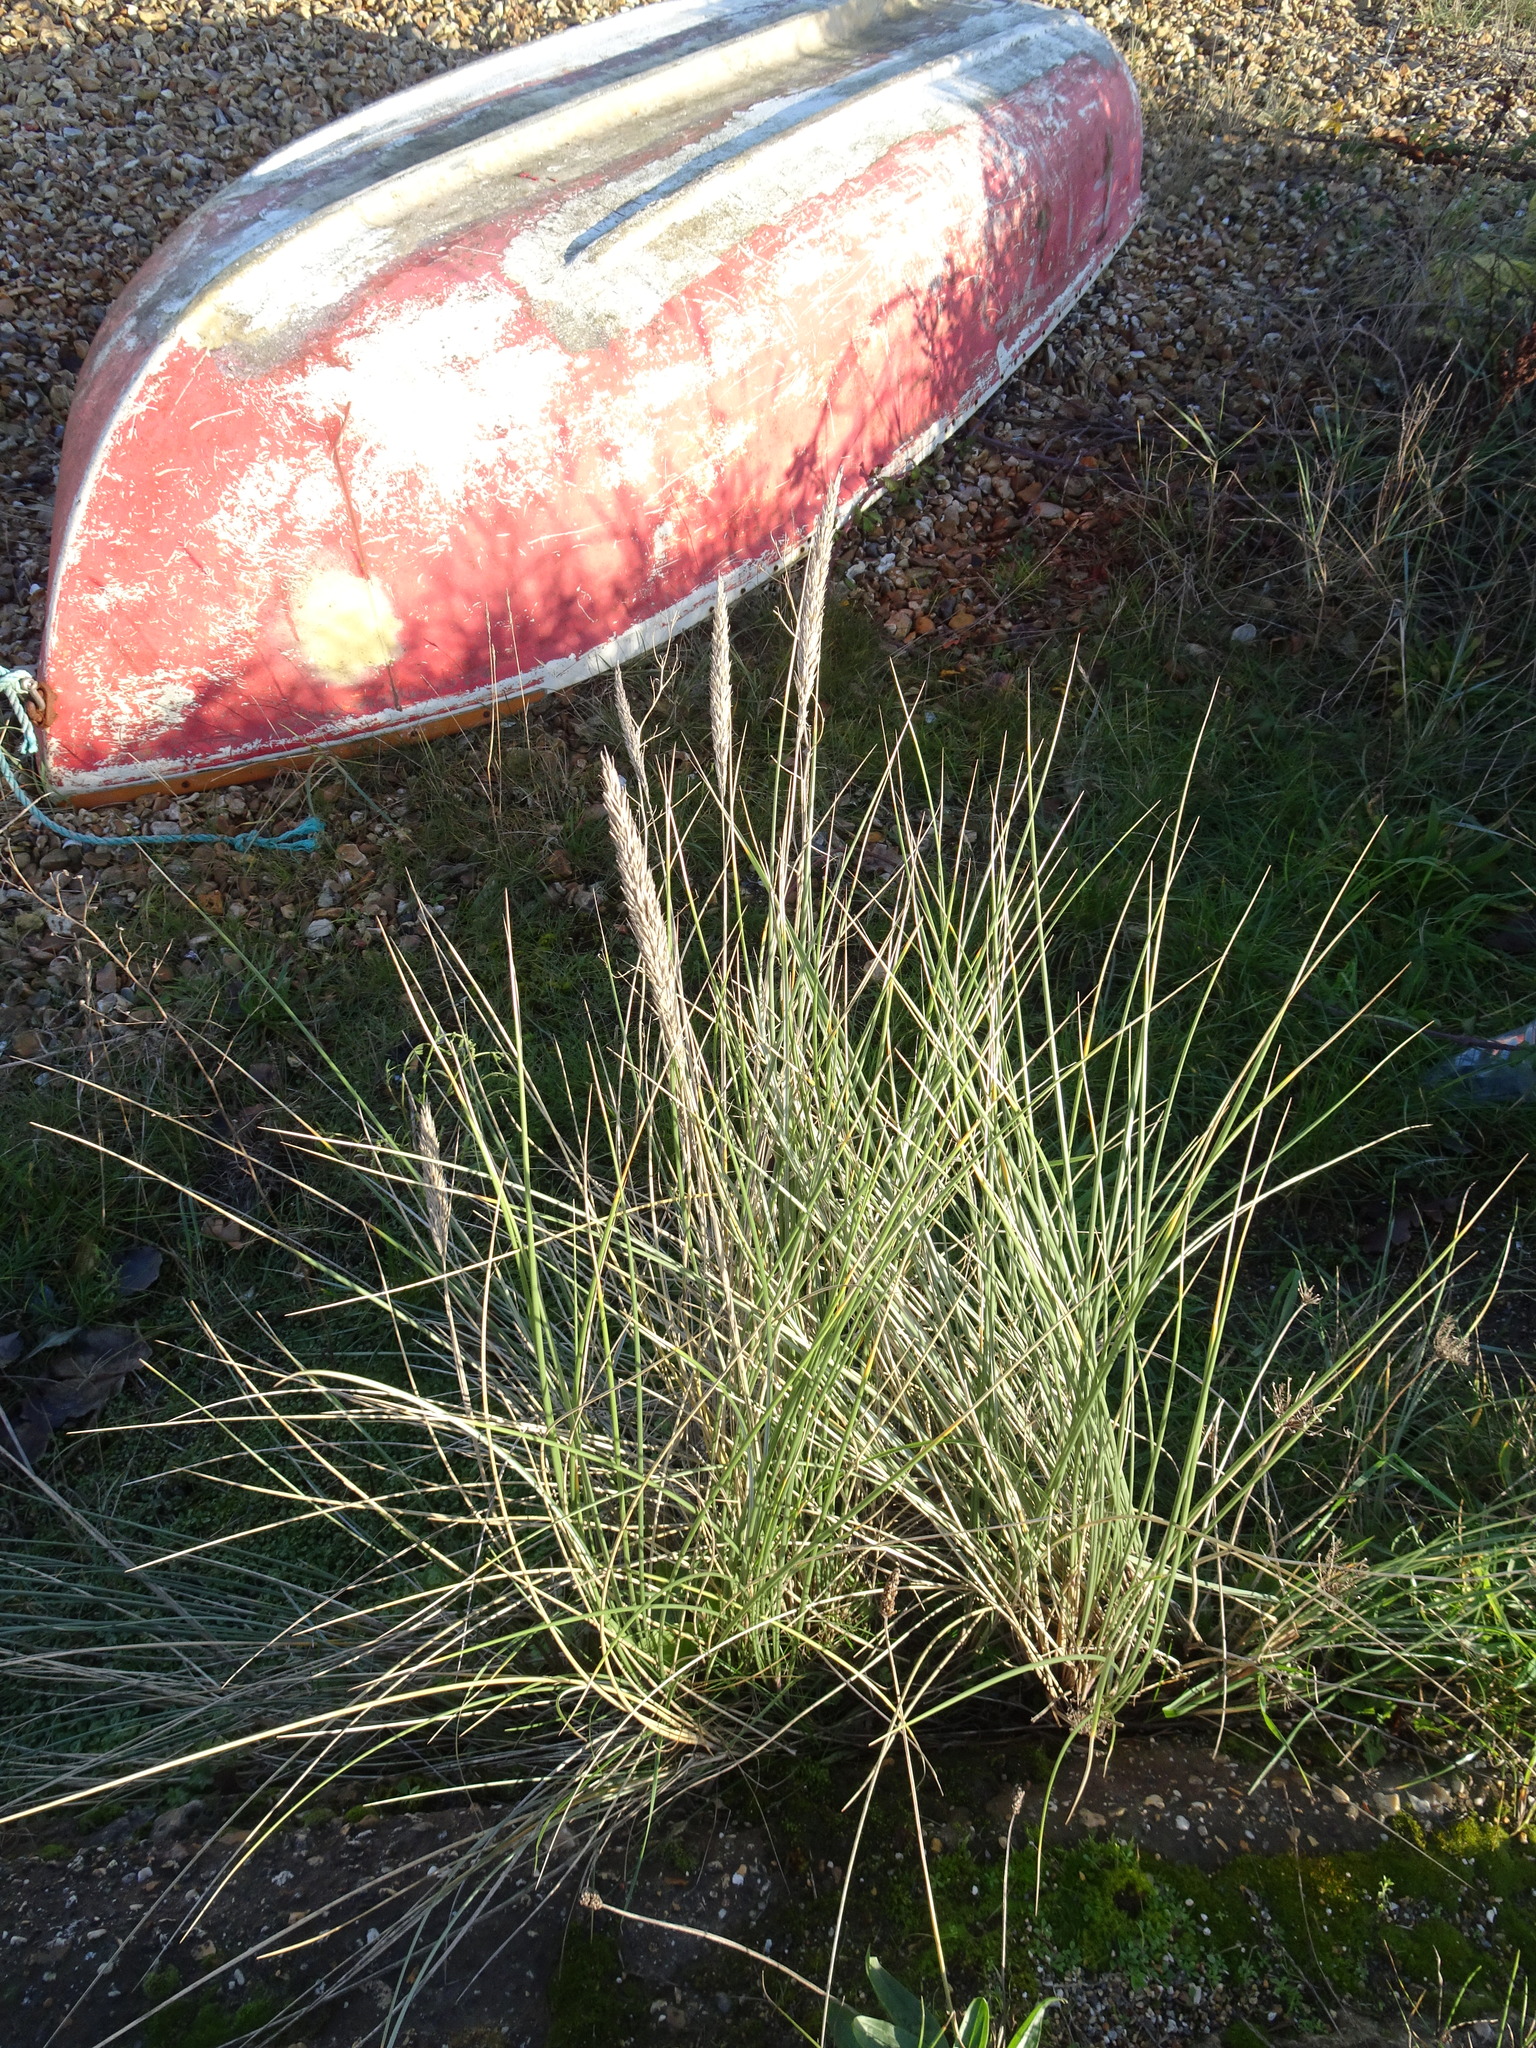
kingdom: Plantae
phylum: Tracheophyta
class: Liliopsida
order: Poales
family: Poaceae
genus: Calamagrostis
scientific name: Calamagrostis arenaria
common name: European beachgrass
